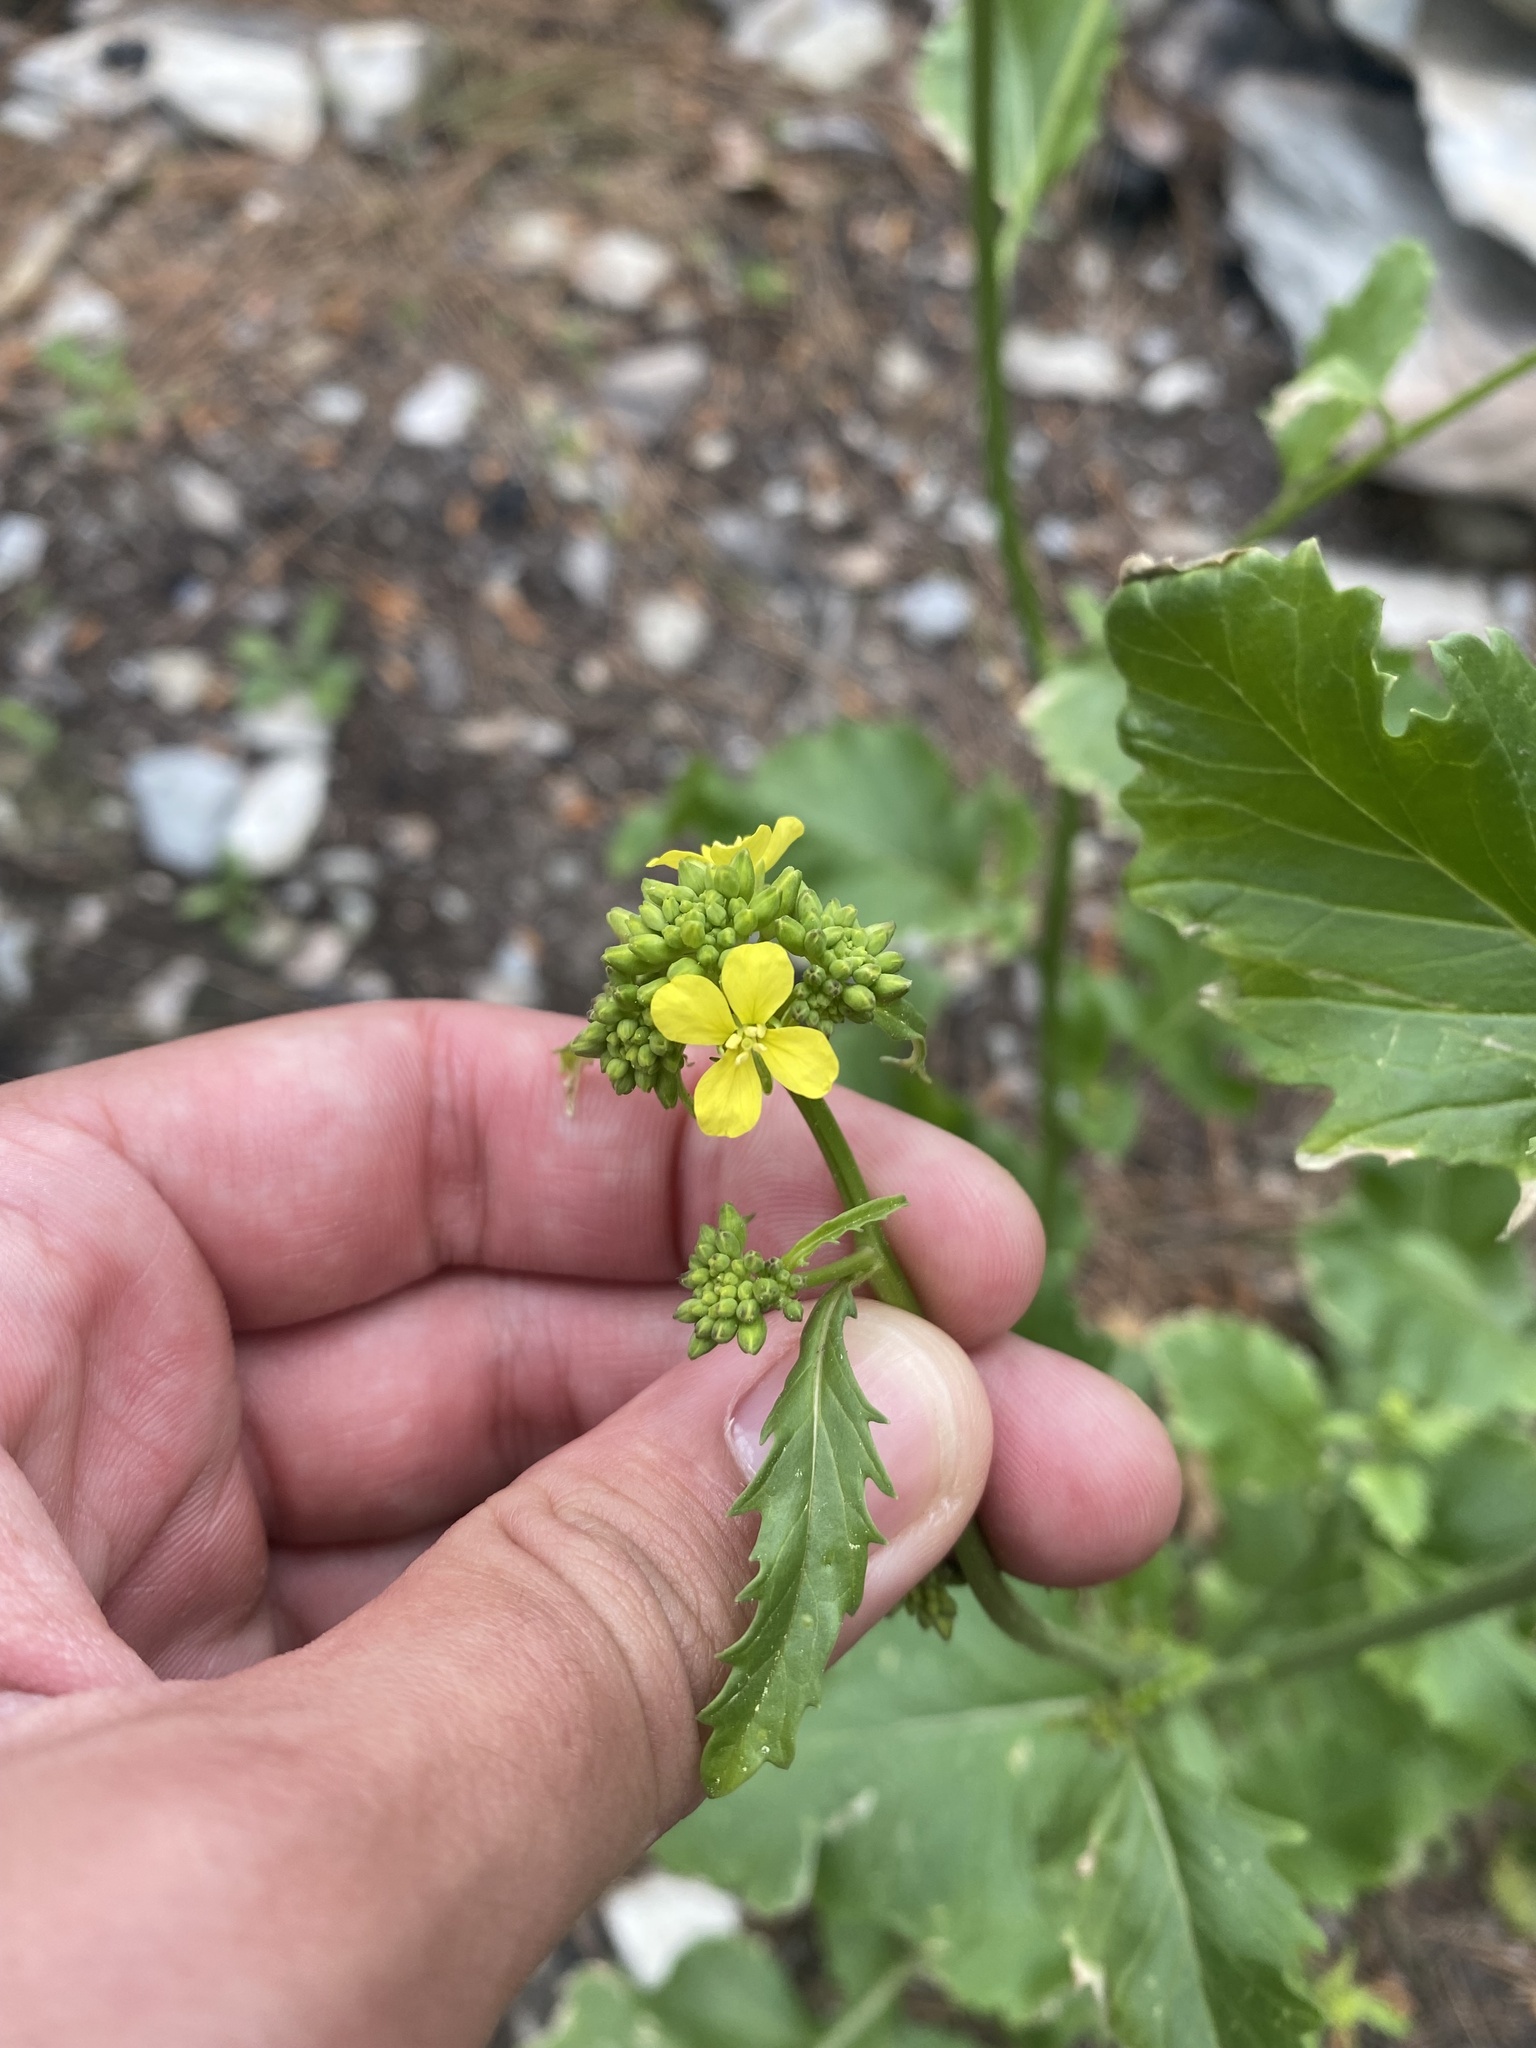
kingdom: Plantae
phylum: Tracheophyta
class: Magnoliopsida
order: Brassicales
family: Brassicaceae
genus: Rapistrum
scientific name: Rapistrum rugosum
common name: Annual bastardcabbage
